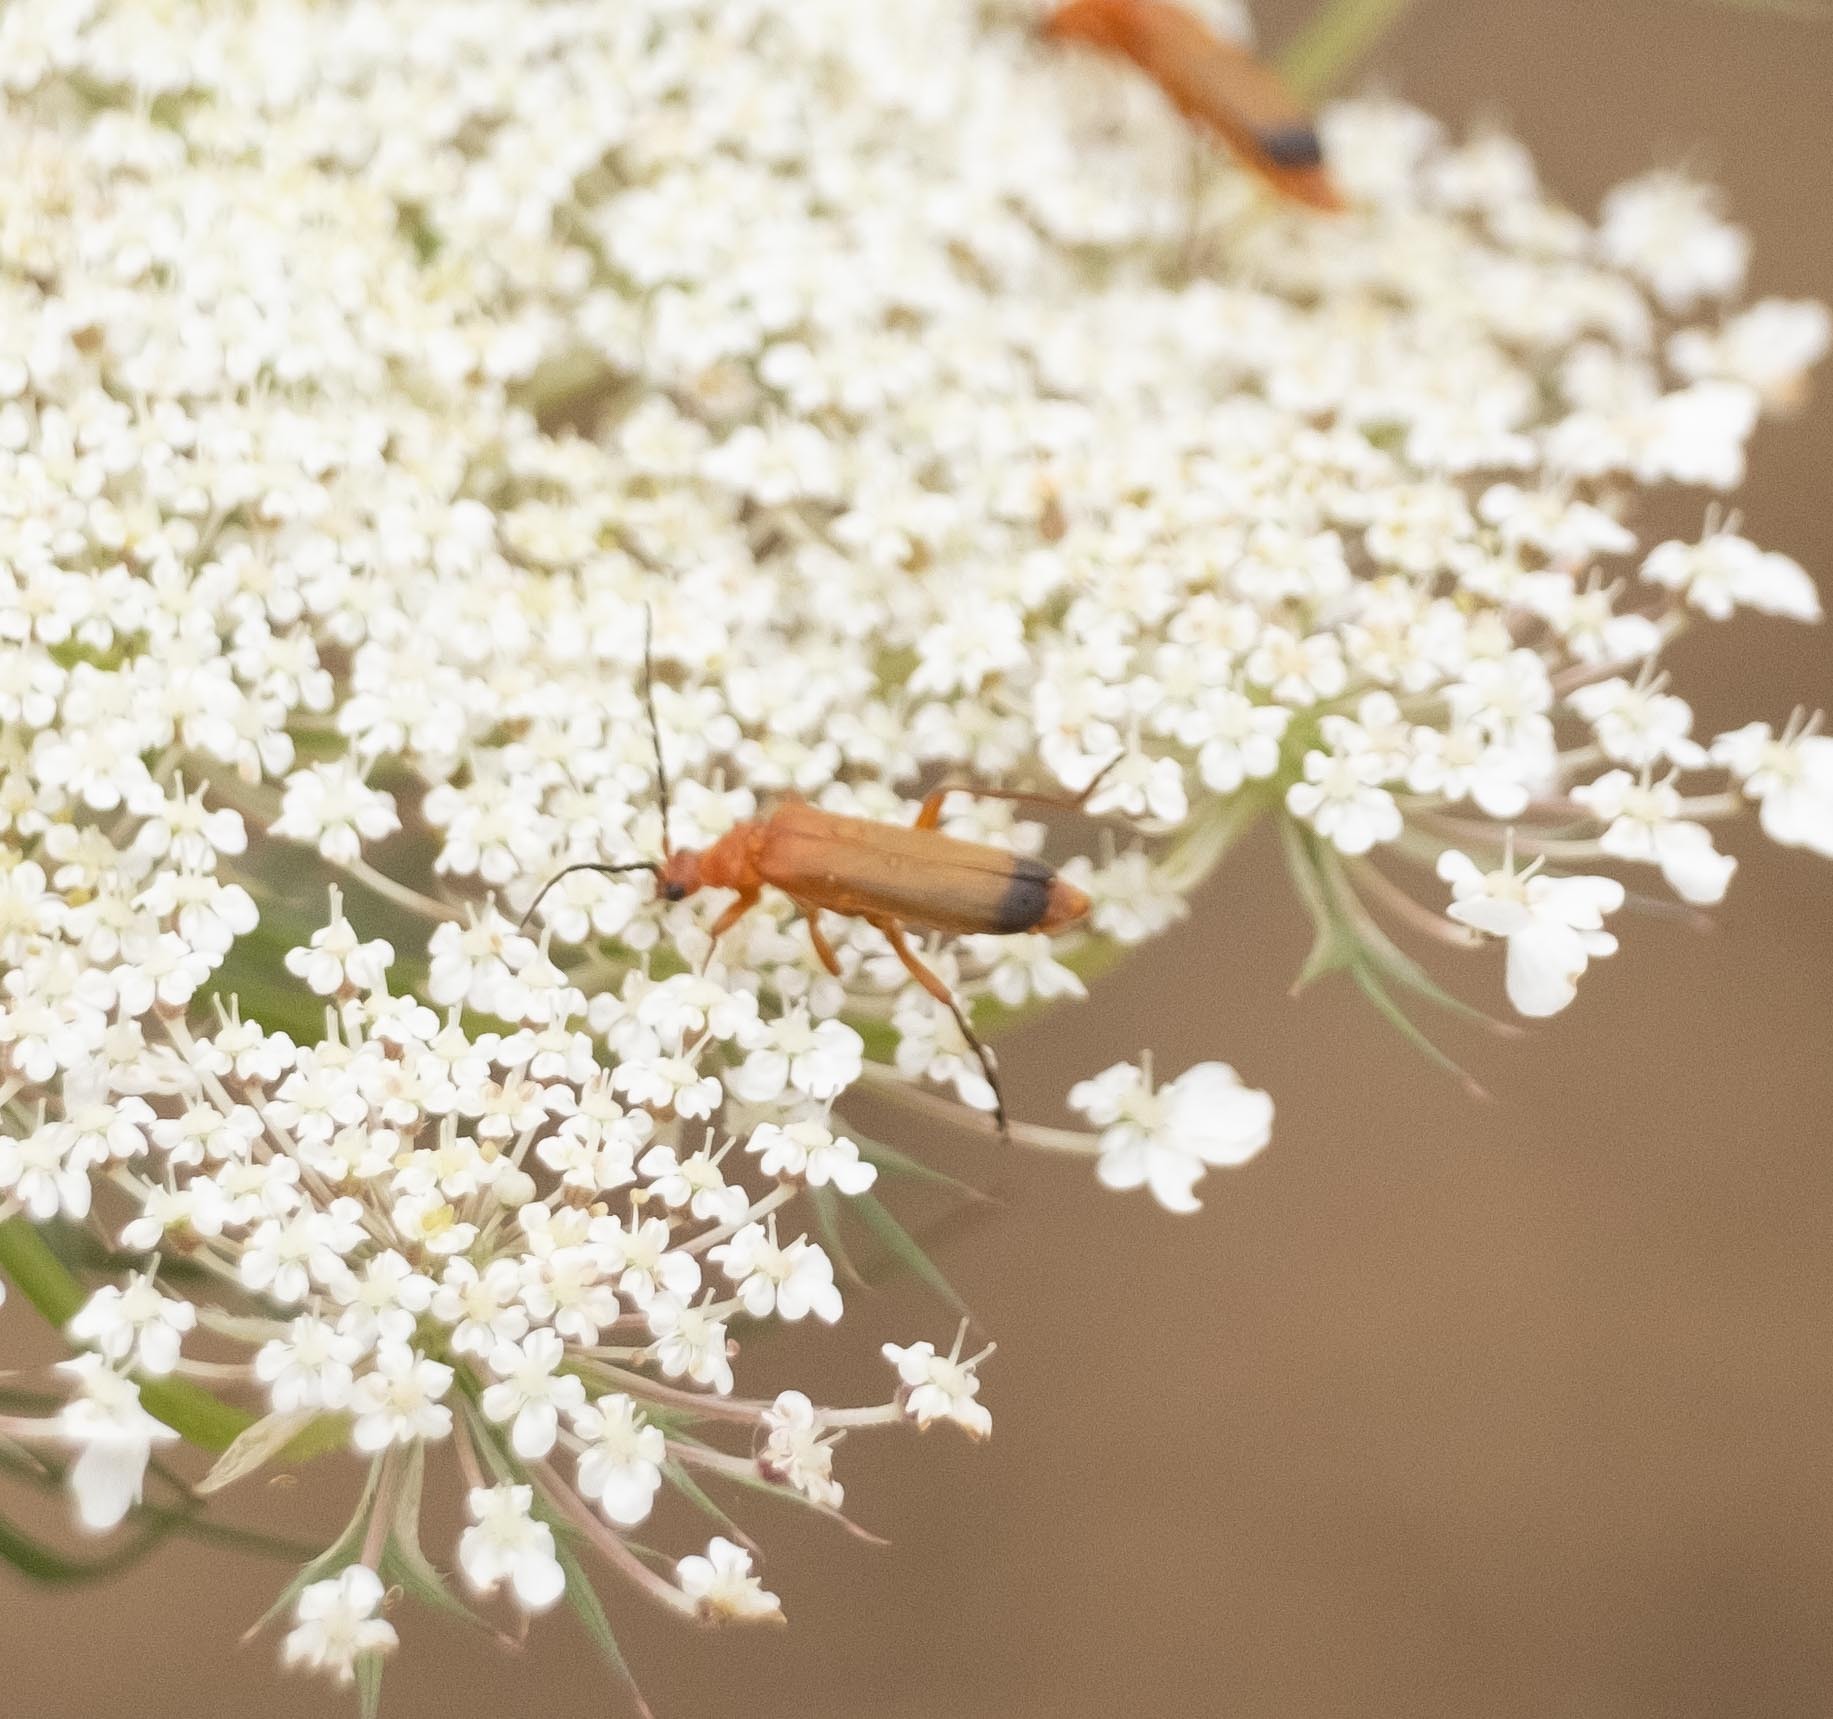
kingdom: Animalia
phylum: Arthropoda
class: Insecta
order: Coleoptera
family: Cantharidae
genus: Rhagonycha
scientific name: Rhagonycha fulva
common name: Common red soldier beetle
